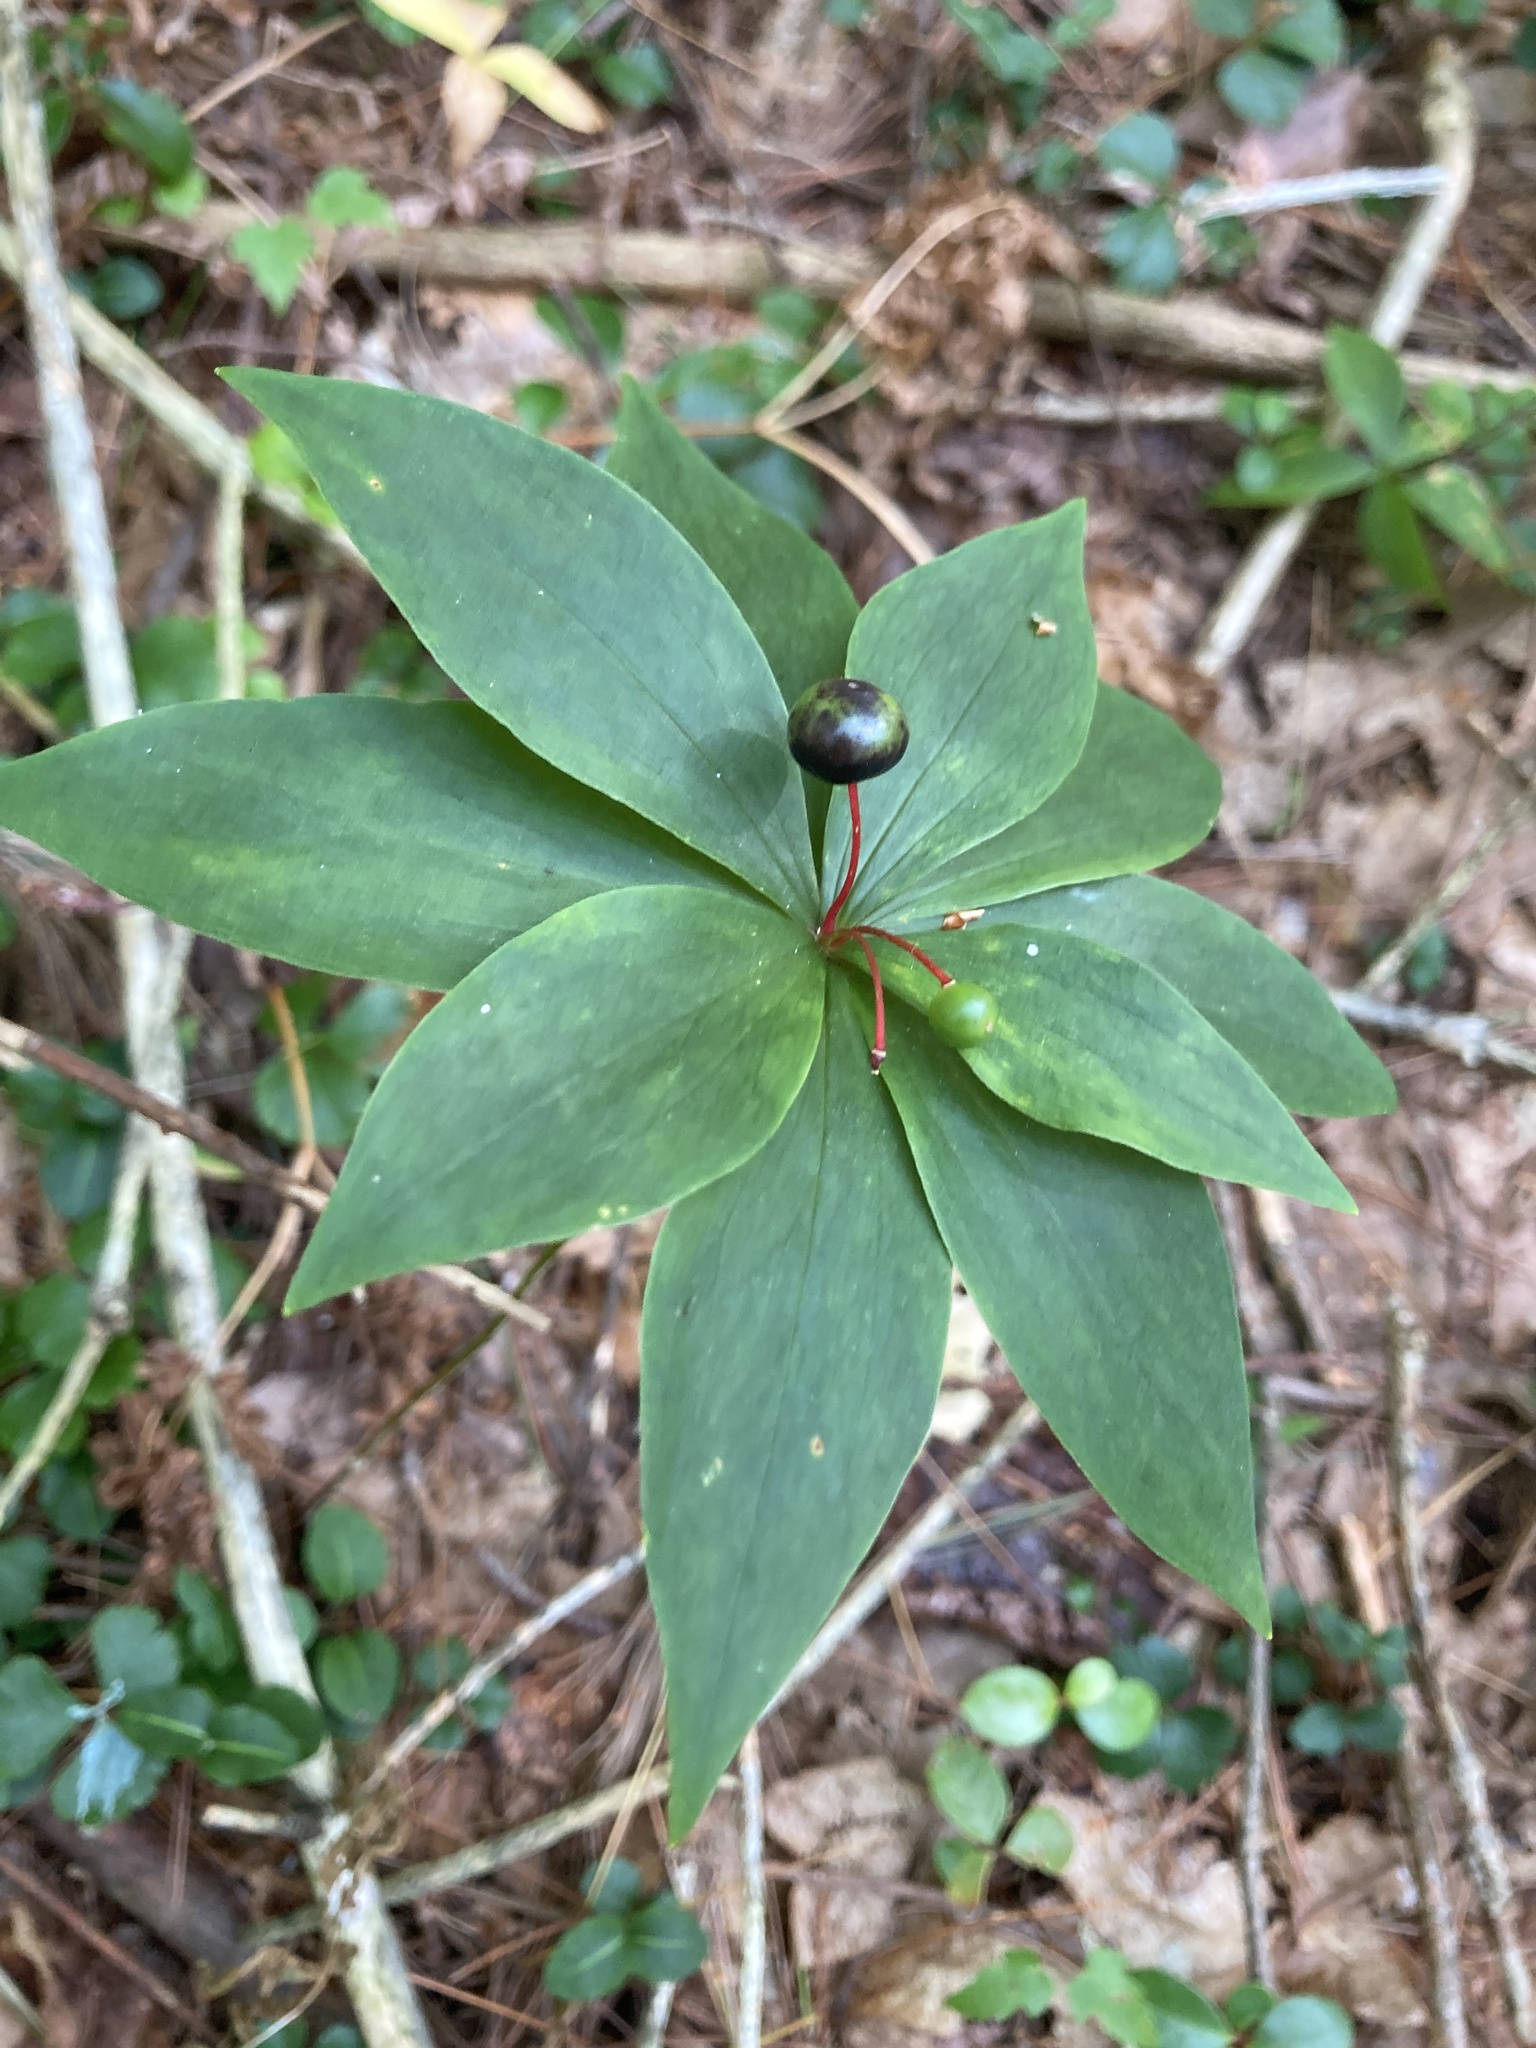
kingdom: Plantae
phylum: Tracheophyta
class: Liliopsida
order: Liliales
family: Liliaceae
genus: Medeola
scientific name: Medeola virginiana
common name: Indian cucumber-root
